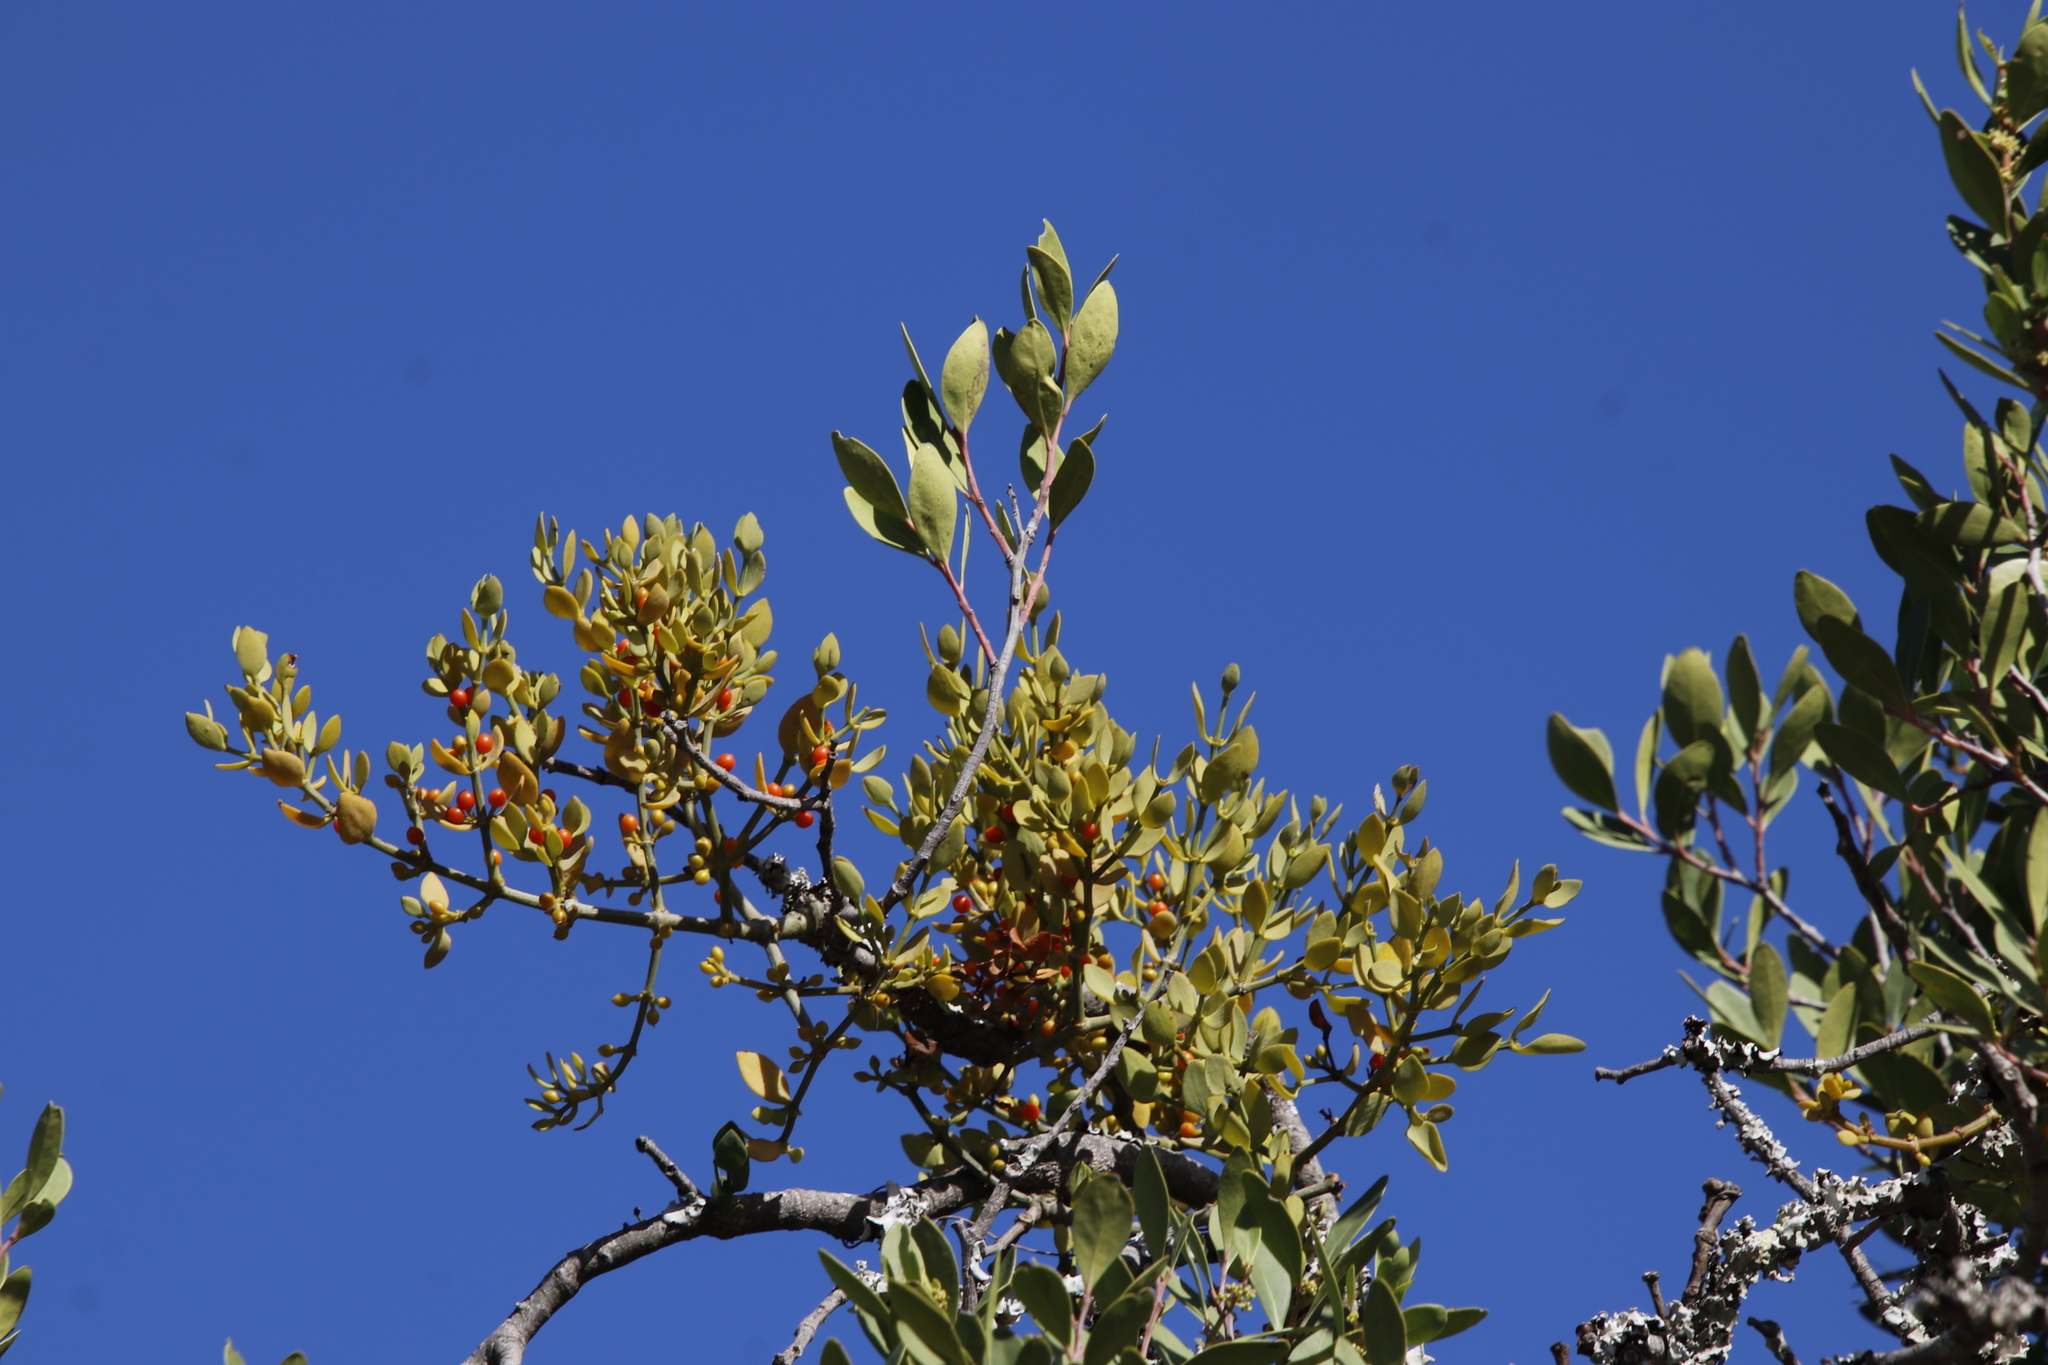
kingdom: Plantae
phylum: Tracheophyta
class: Magnoliopsida
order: Santalales
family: Viscaceae
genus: Viscum
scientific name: Viscum pauciflorum
